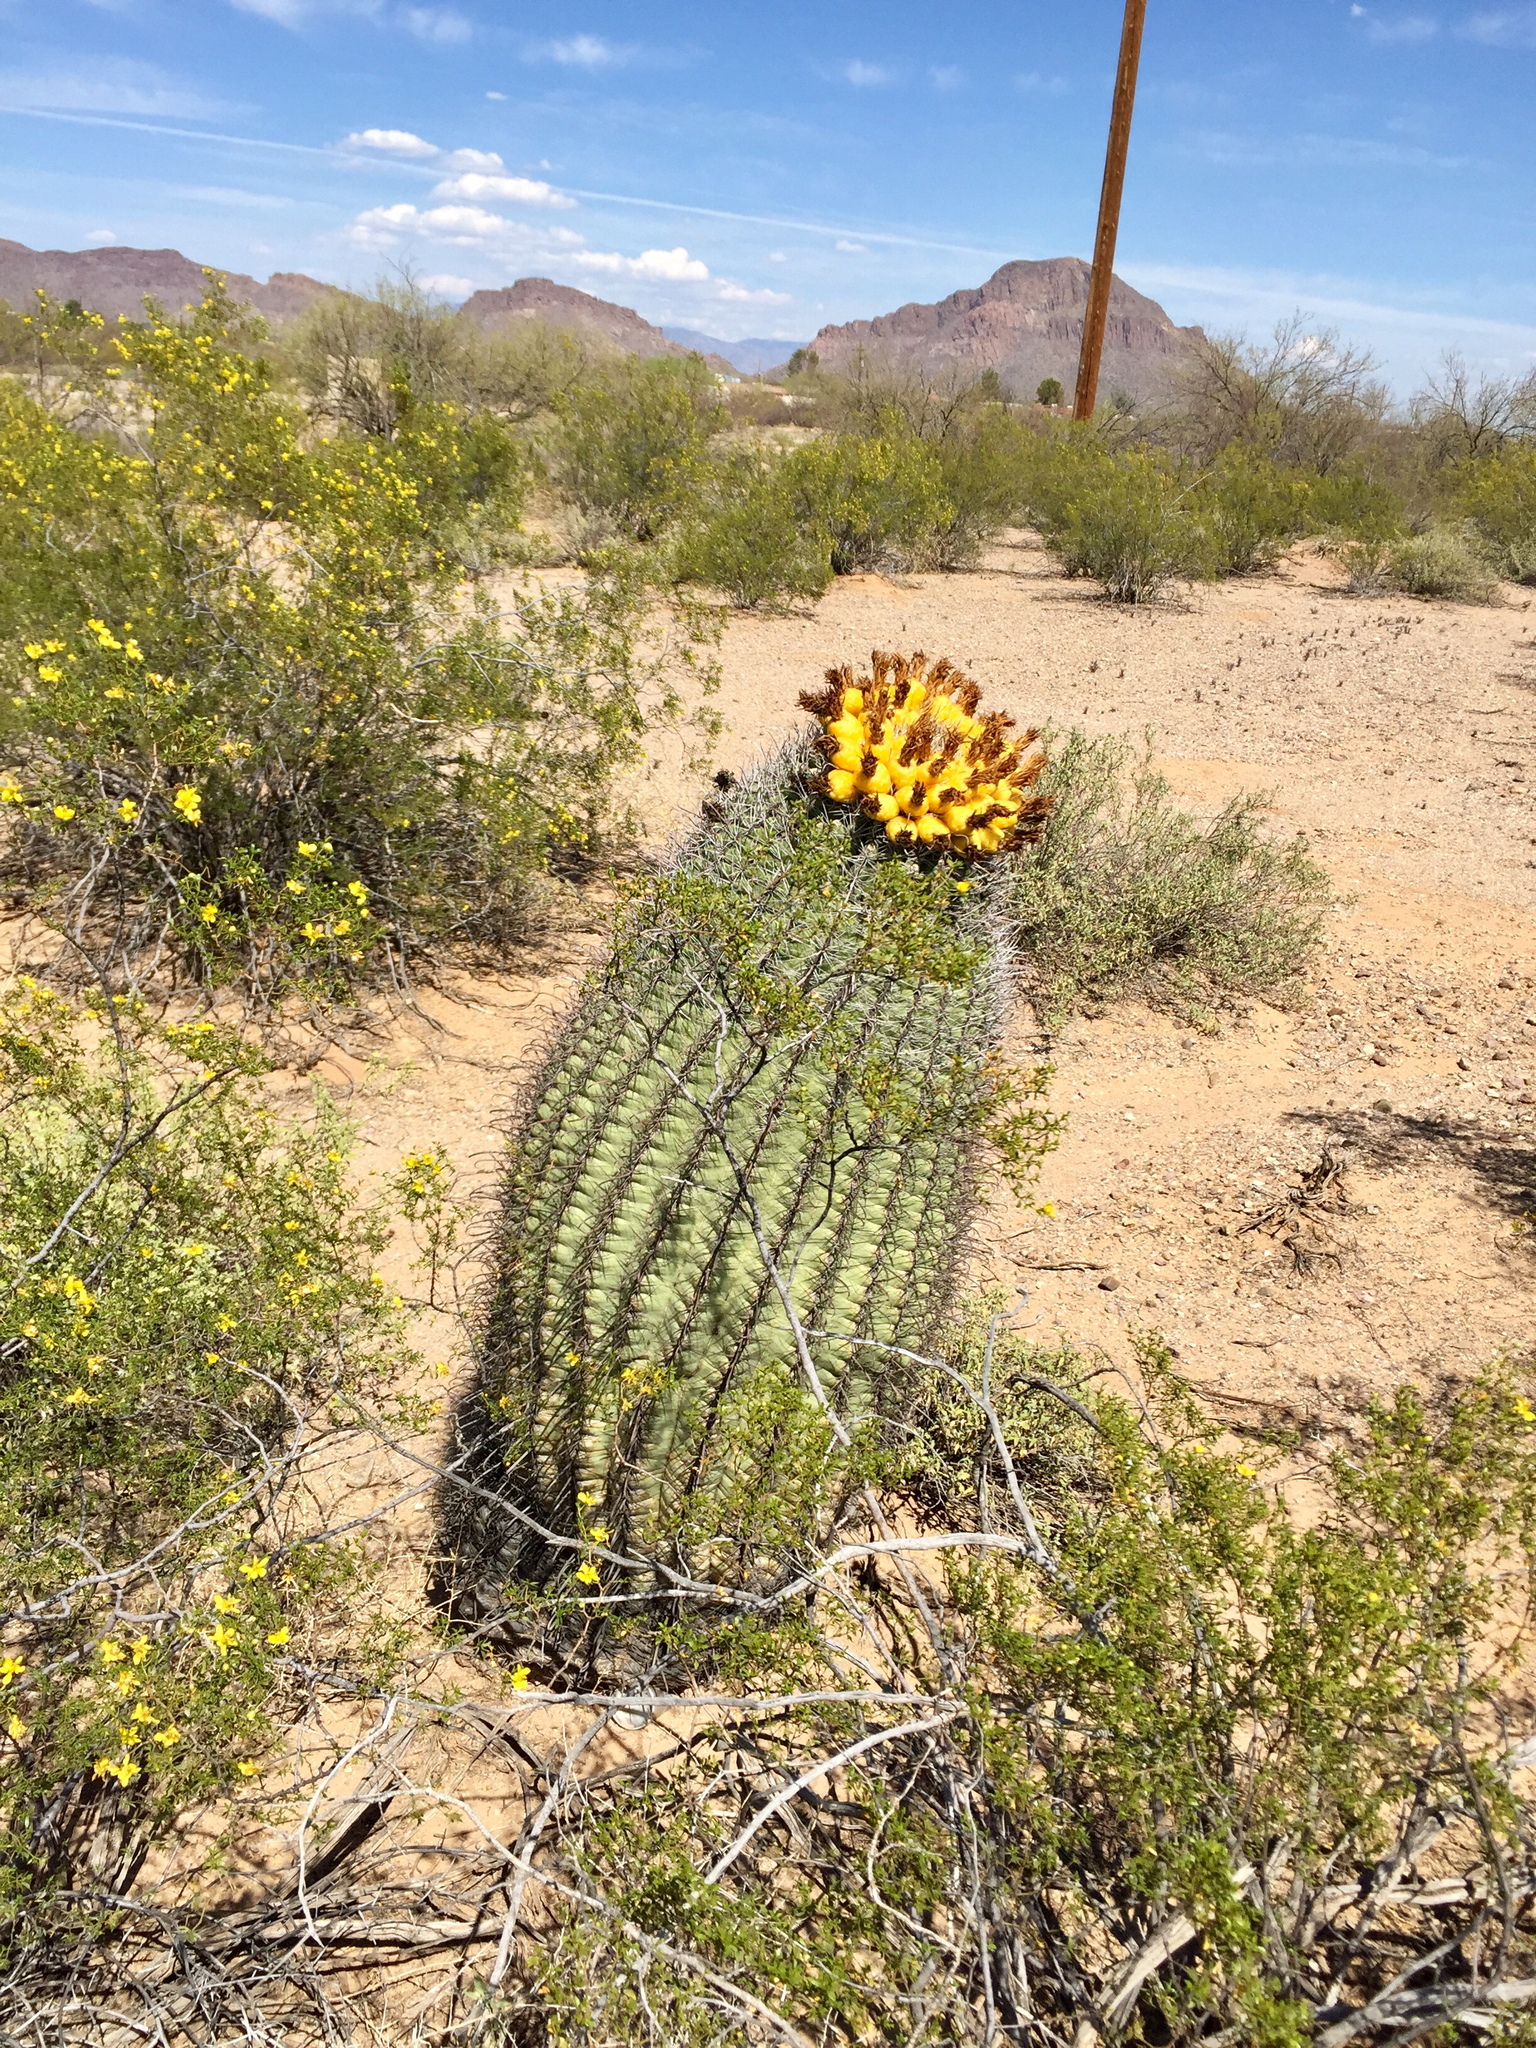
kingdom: Plantae
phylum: Tracheophyta
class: Magnoliopsida
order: Caryophyllales
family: Cactaceae
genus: Ferocactus
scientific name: Ferocactus wislizeni
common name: Candy barrel cactus
